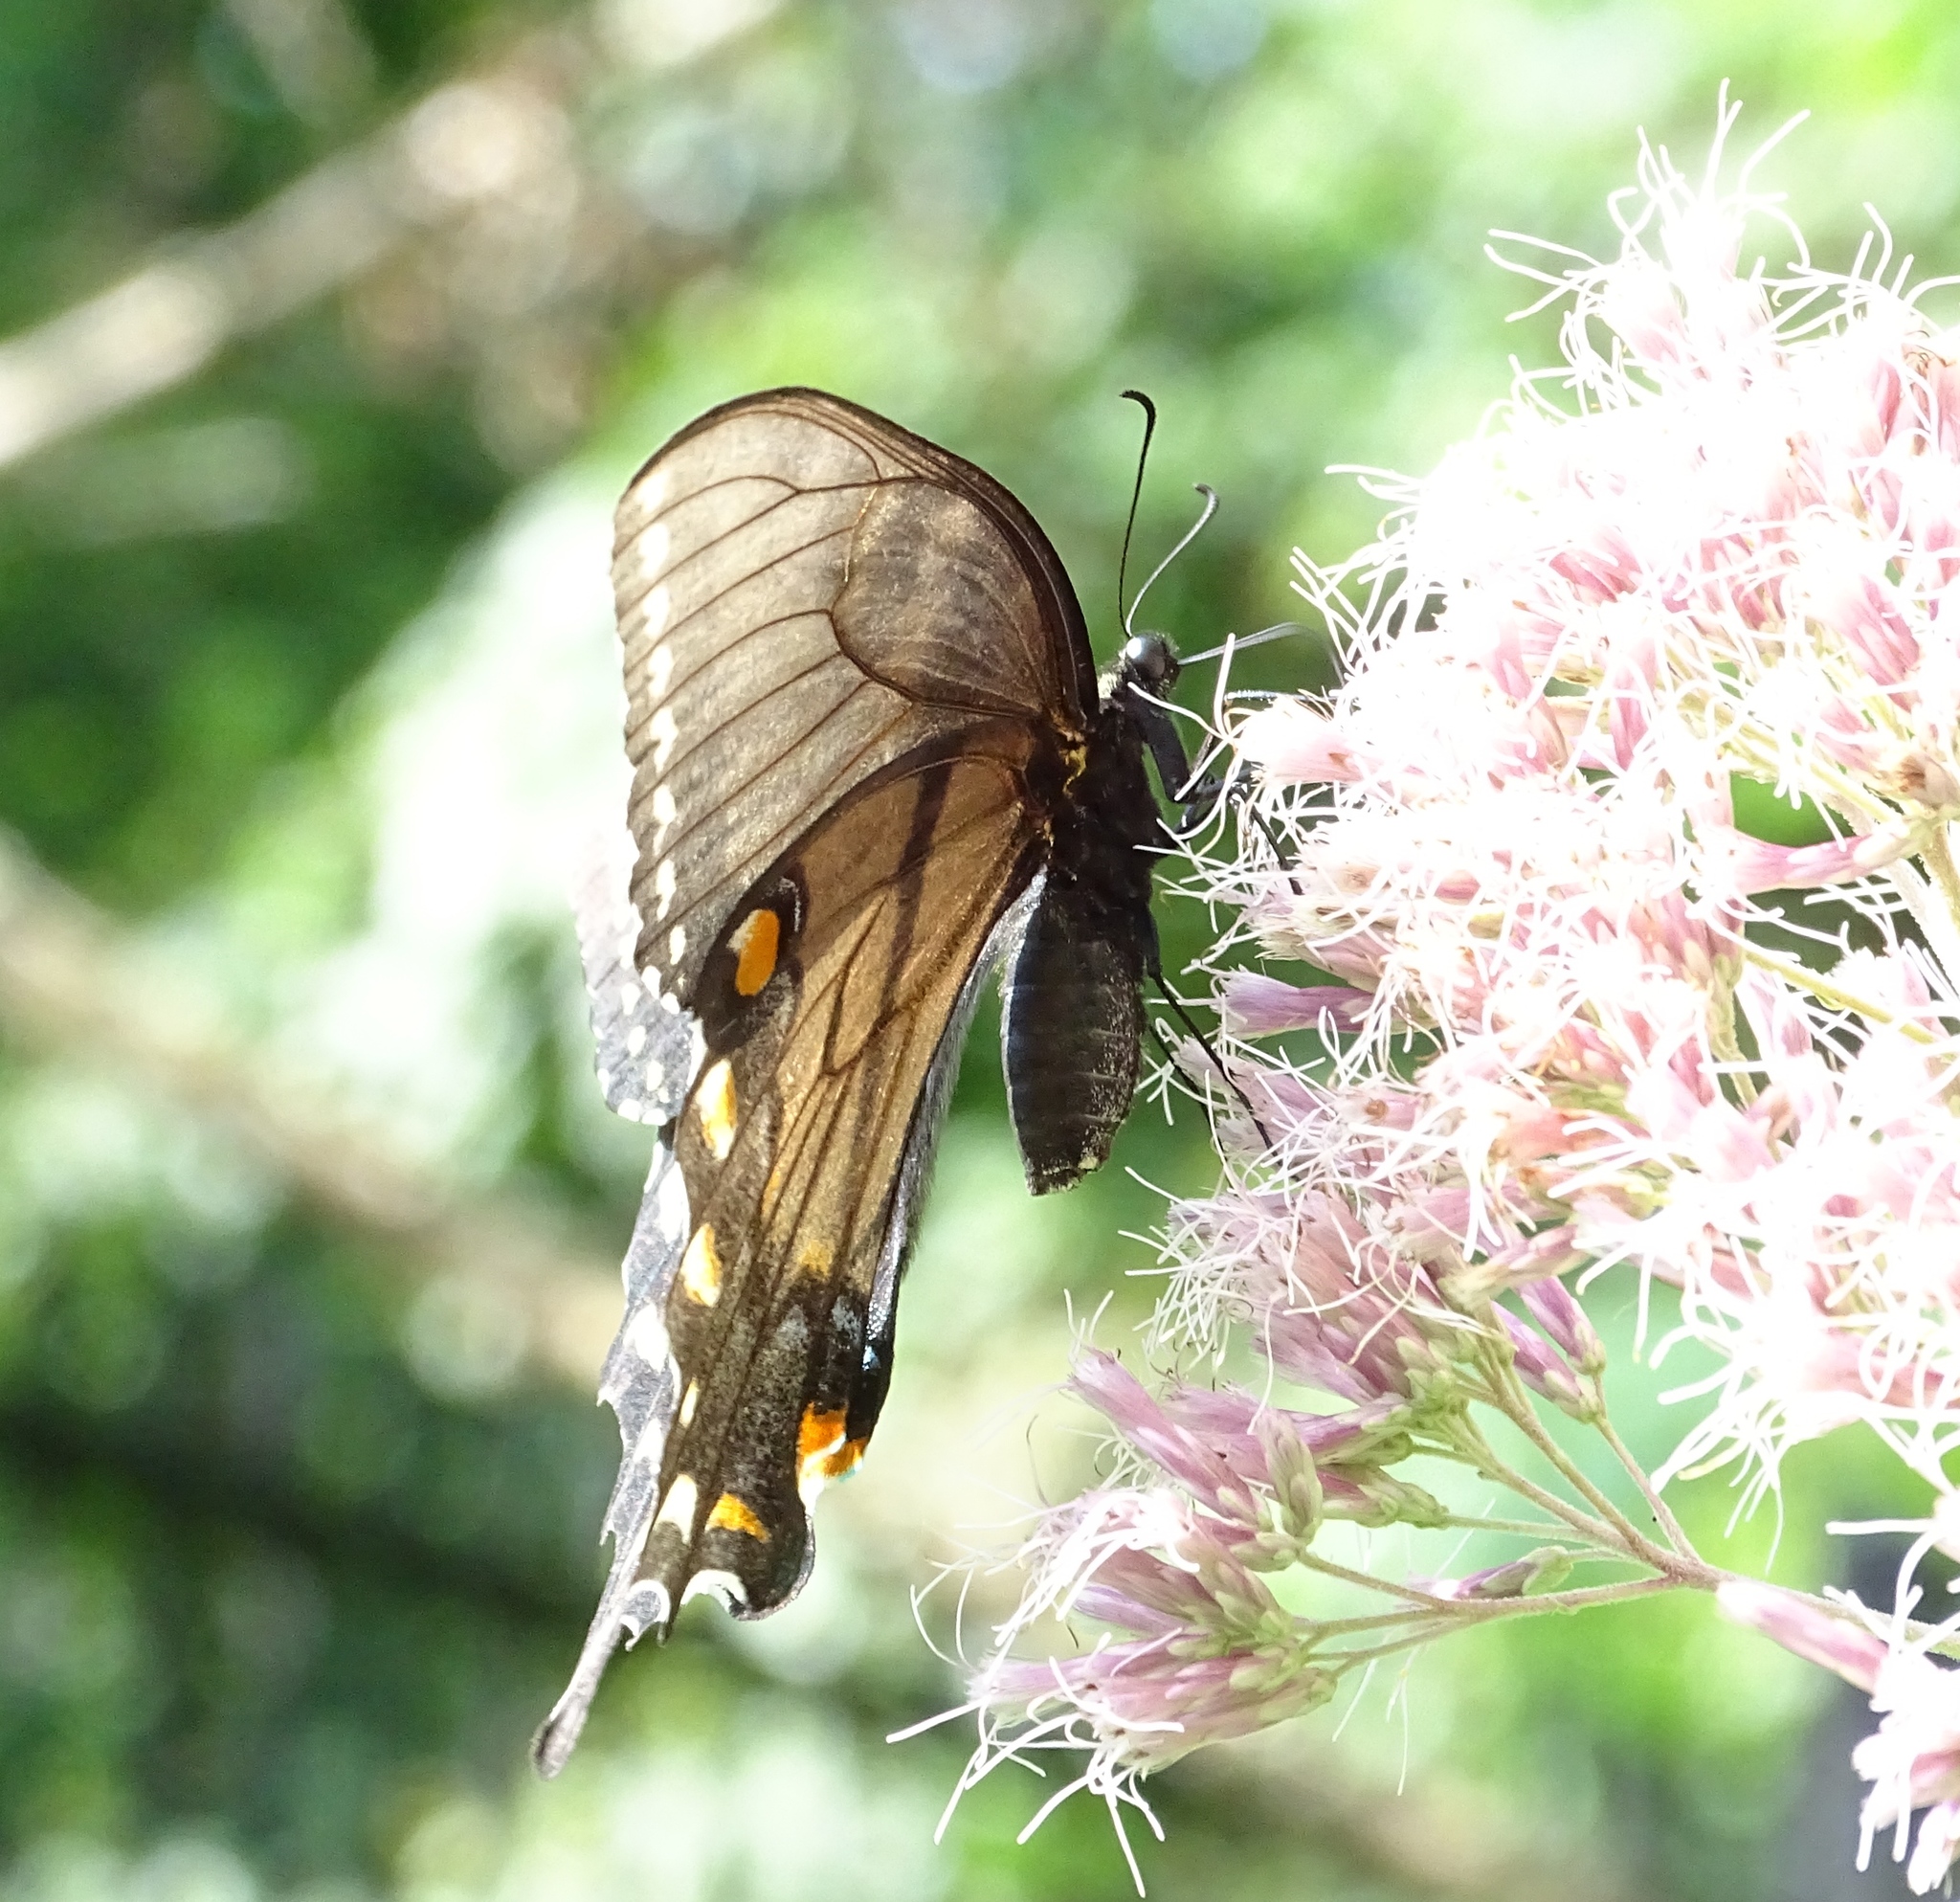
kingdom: Animalia
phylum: Arthropoda
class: Insecta
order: Lepidoptera
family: Papilionidae
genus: Papilio
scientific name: Papilio glaucus
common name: Tiger swallowtail
